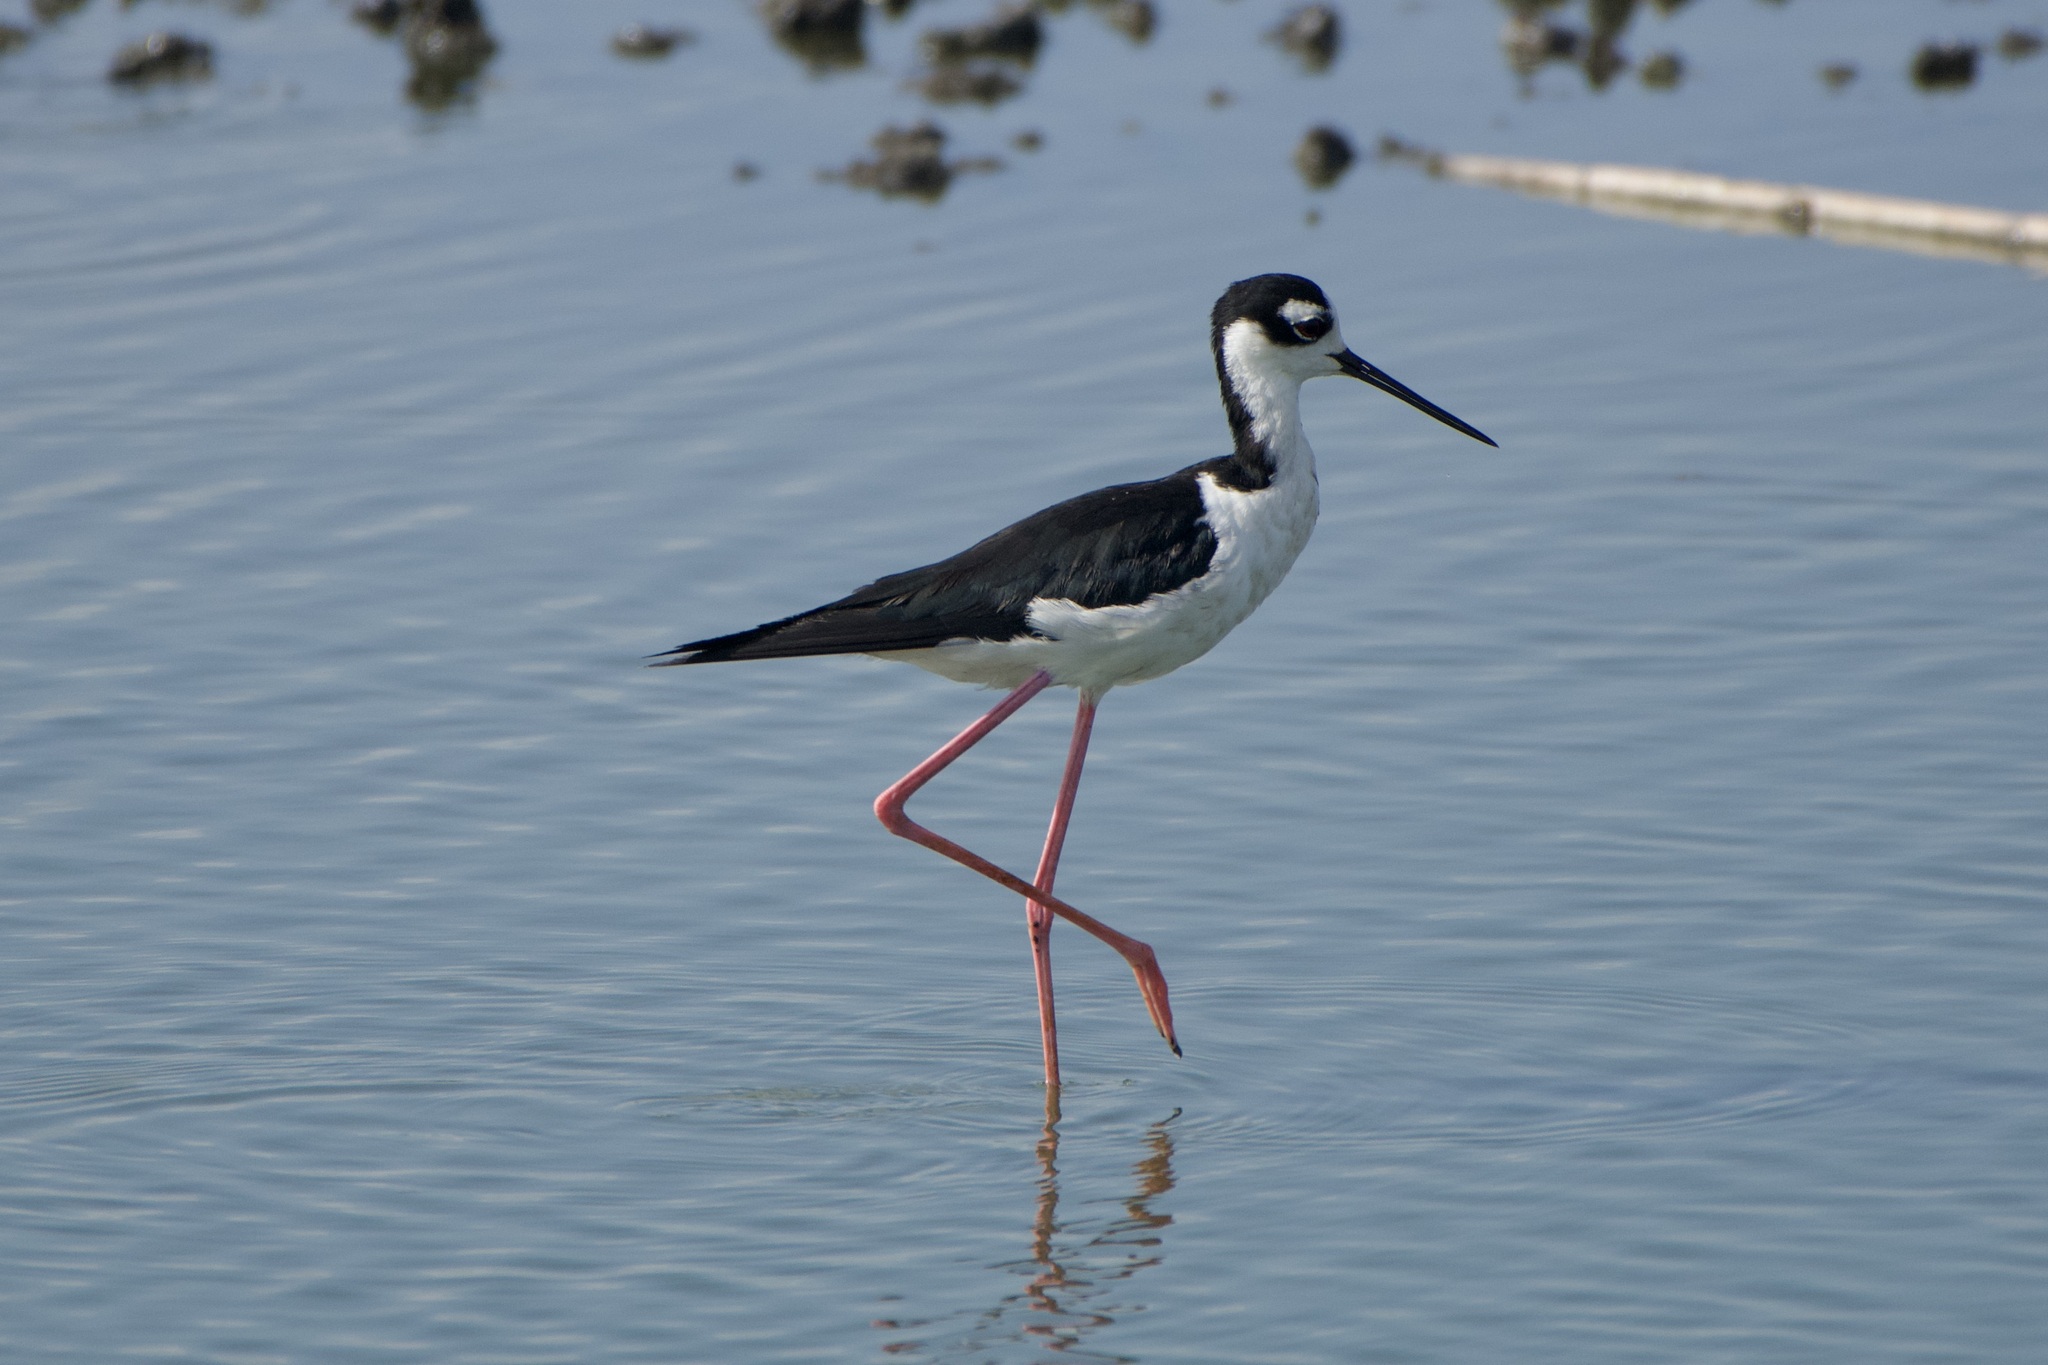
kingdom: Animalia
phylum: Chordata
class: Aves
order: Charadriiformes
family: Recurvirostridae
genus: Himantopus
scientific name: Himantopus mexicanus
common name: Black-necked stilt
